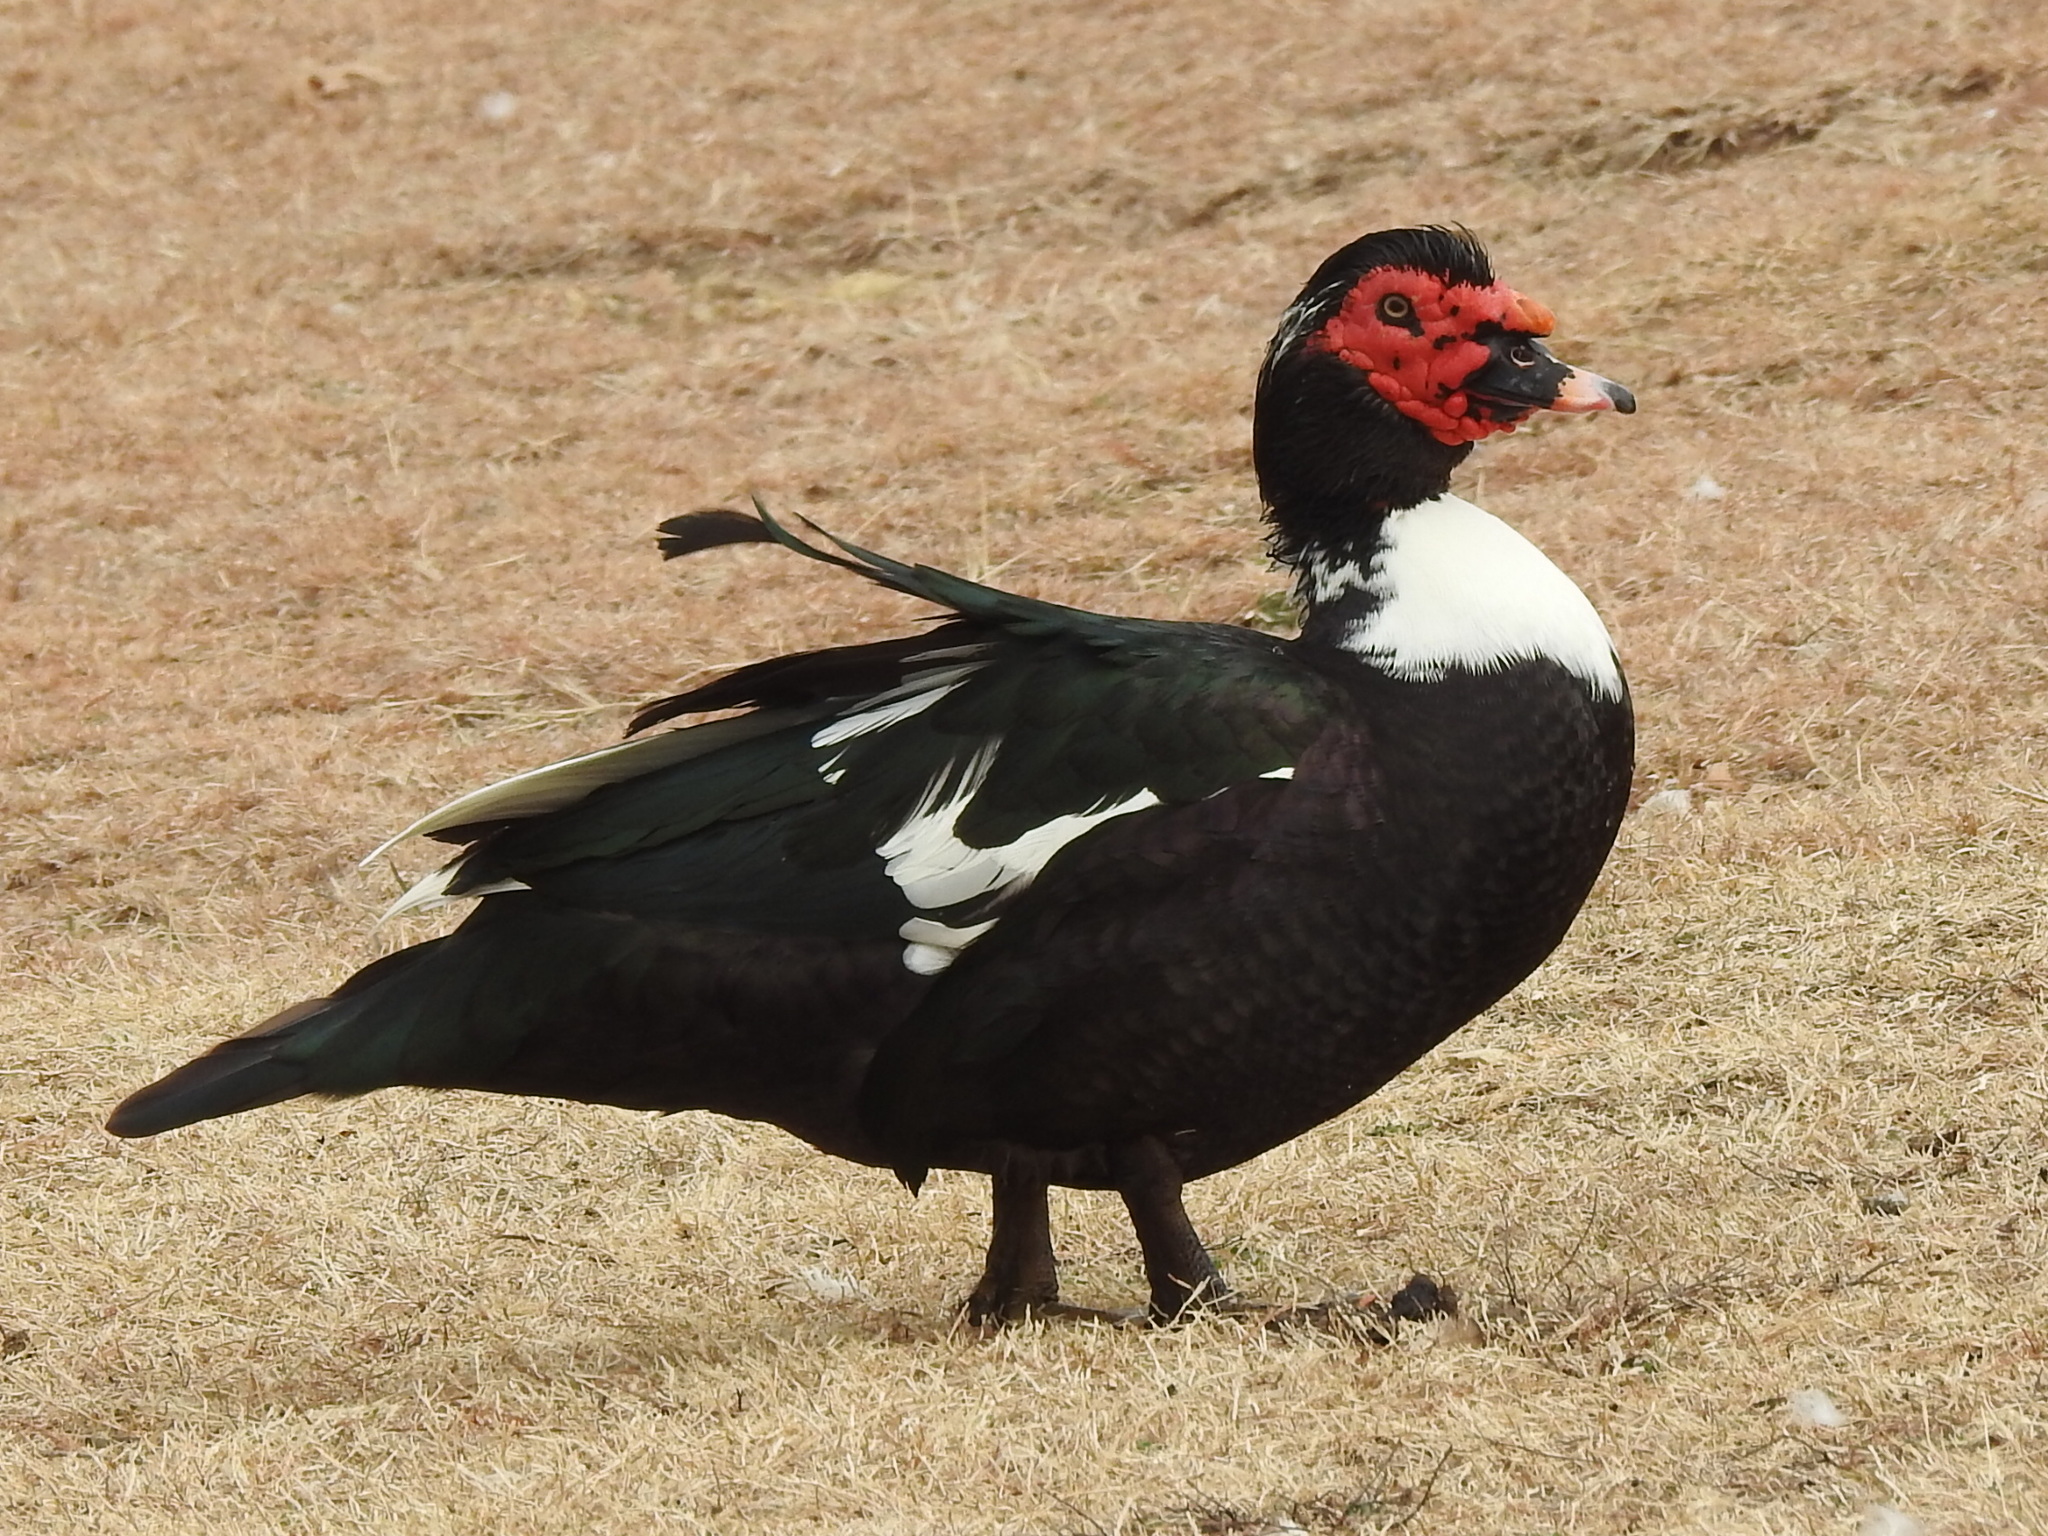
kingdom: Animalia
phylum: Chordata
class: Aves
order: Anseriformes
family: Anatidae
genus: Cairina
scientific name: Cairina moschata
